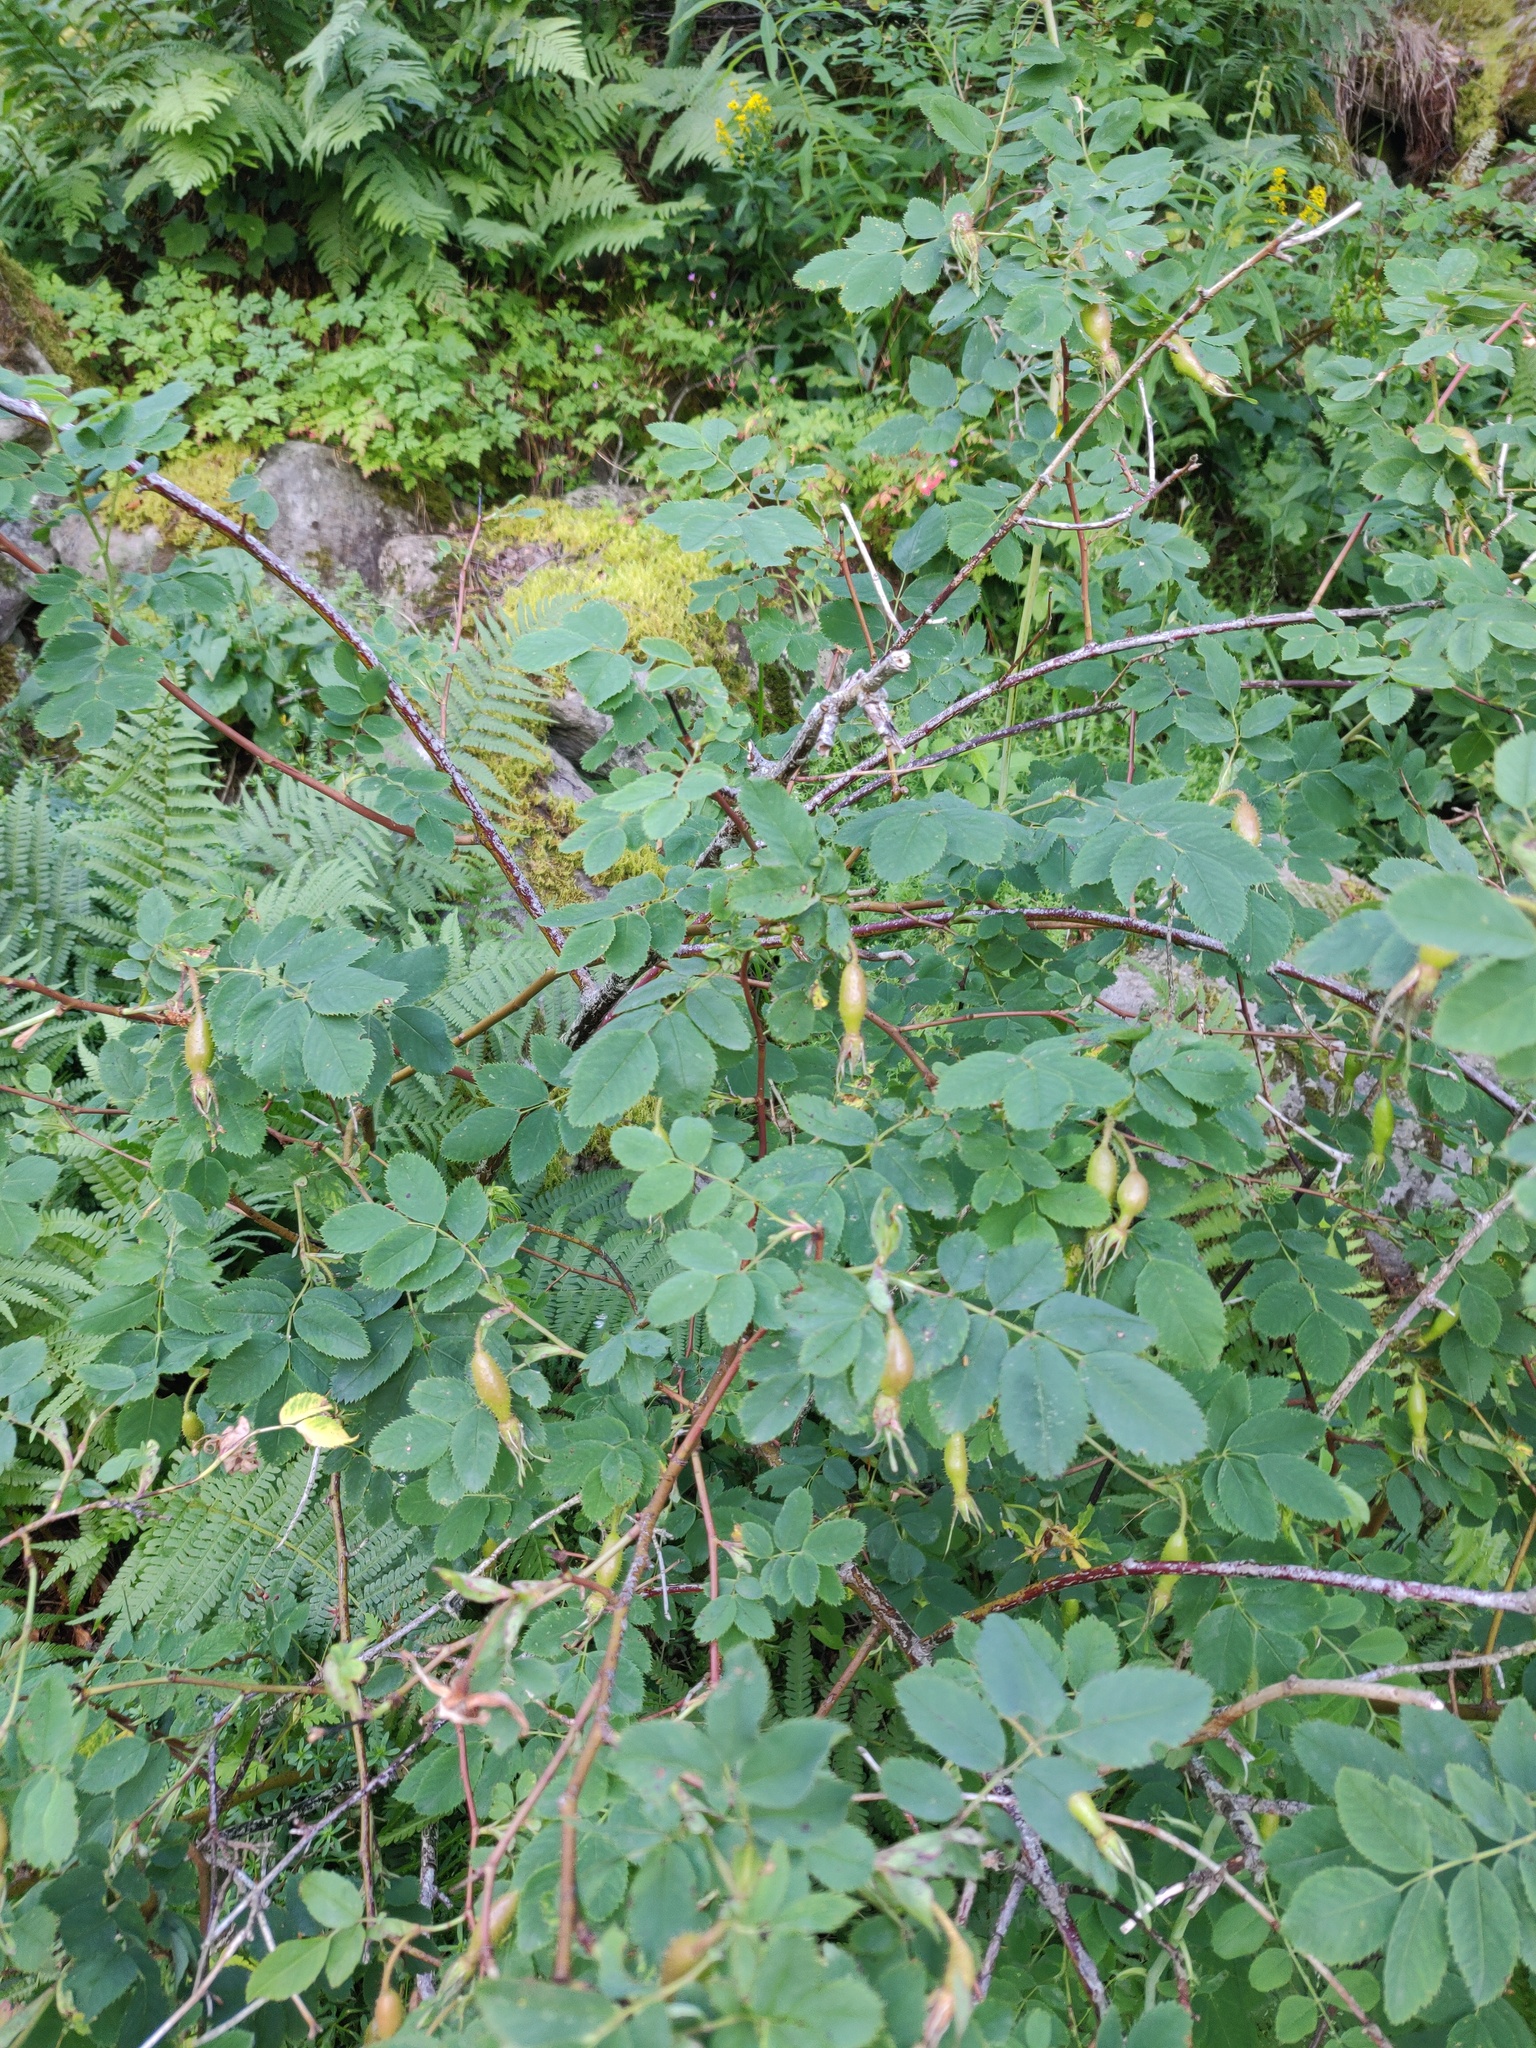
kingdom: Plantae
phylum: Tracheophyta
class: Magnoliopsida
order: Rosales
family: Rosaceae
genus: Rosa
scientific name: Rosa pendulina
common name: Alpine rose
